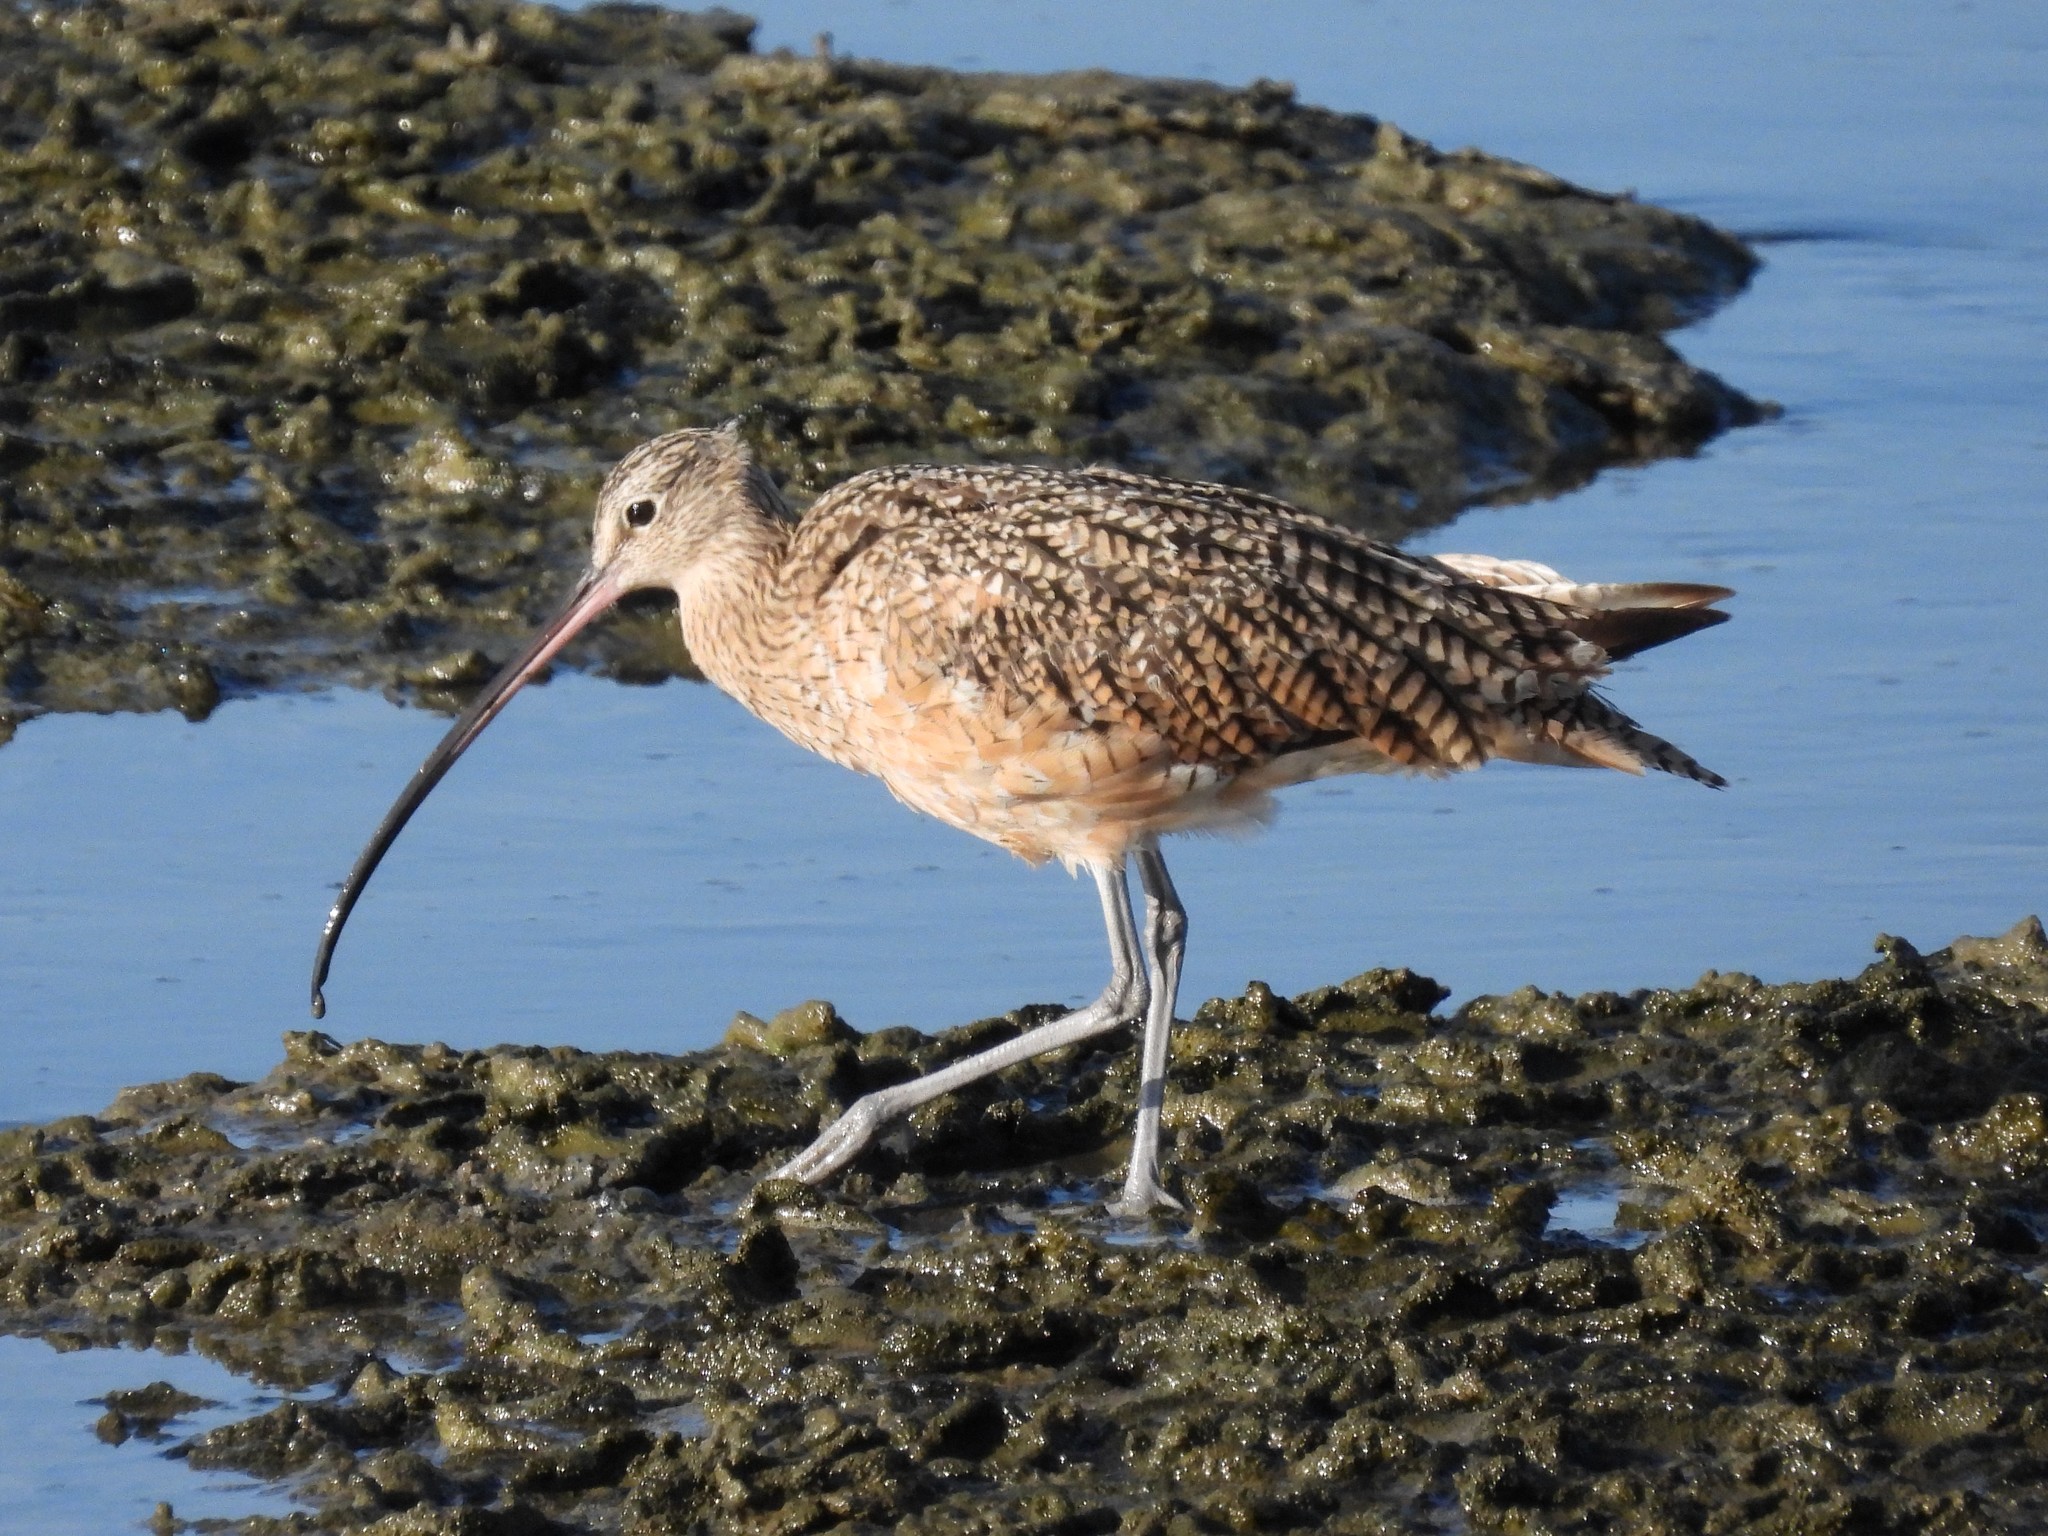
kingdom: Animalia
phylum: Chordata
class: Aves
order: Charadriiformes
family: Scolopacidae
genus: Numenius
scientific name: Numenius americanus
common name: Long-billed curlew
